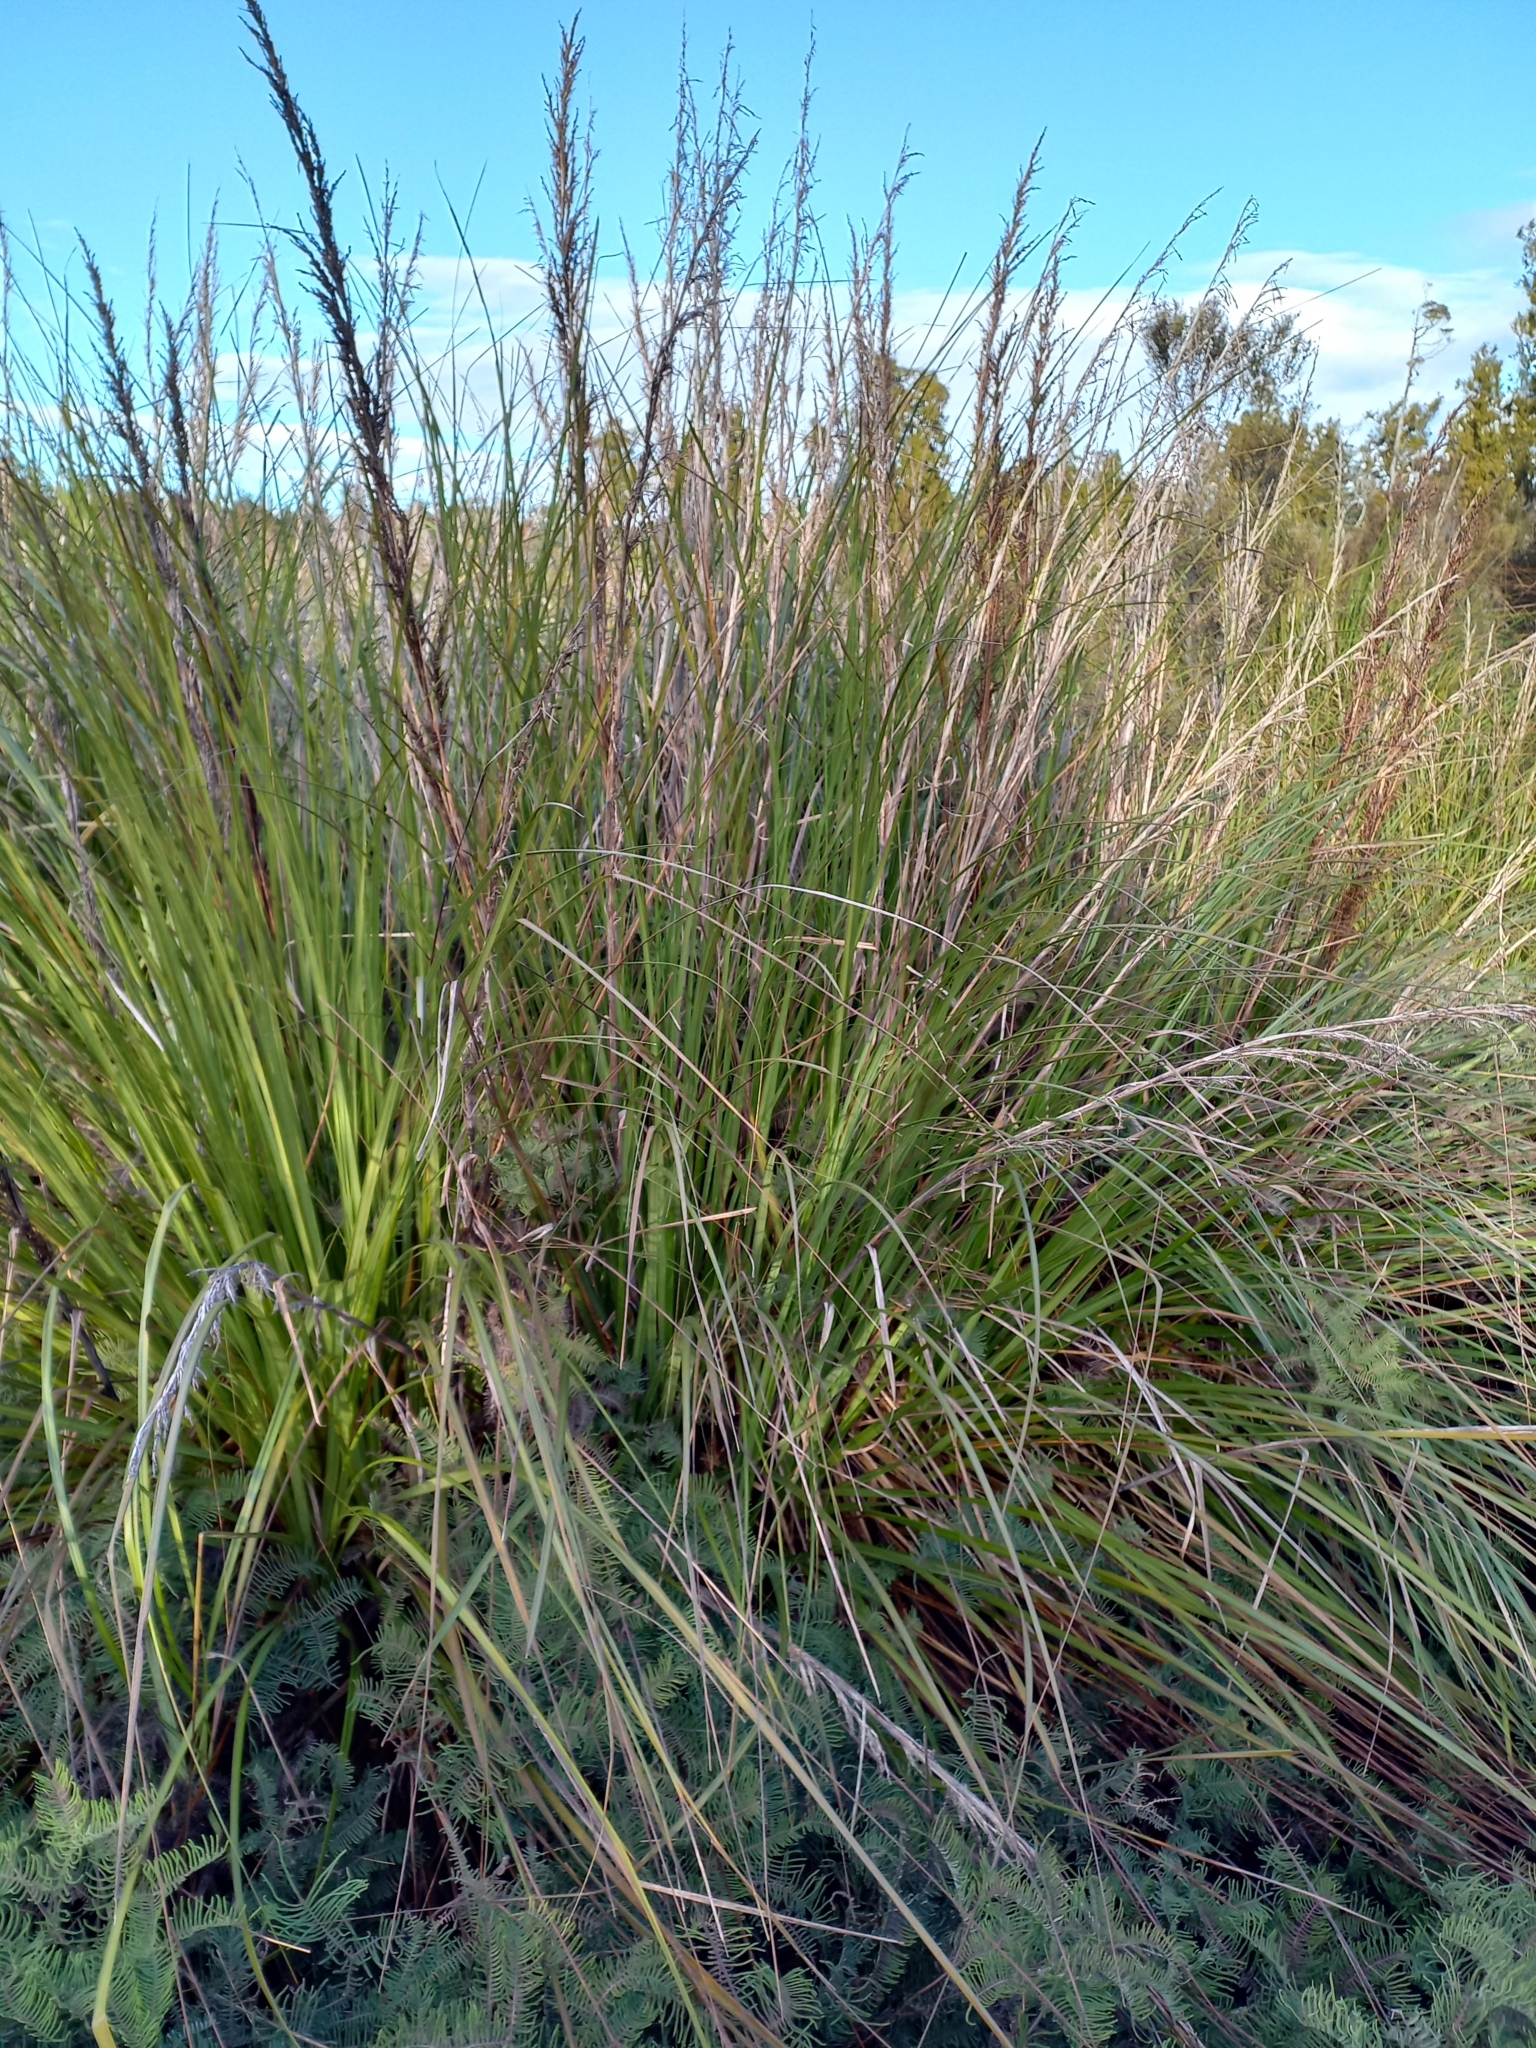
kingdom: Plantae
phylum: Tracheophyta
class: Liliopsida
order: Poales
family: Cyperaceae
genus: Gahnia
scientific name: Gahnia rigida
